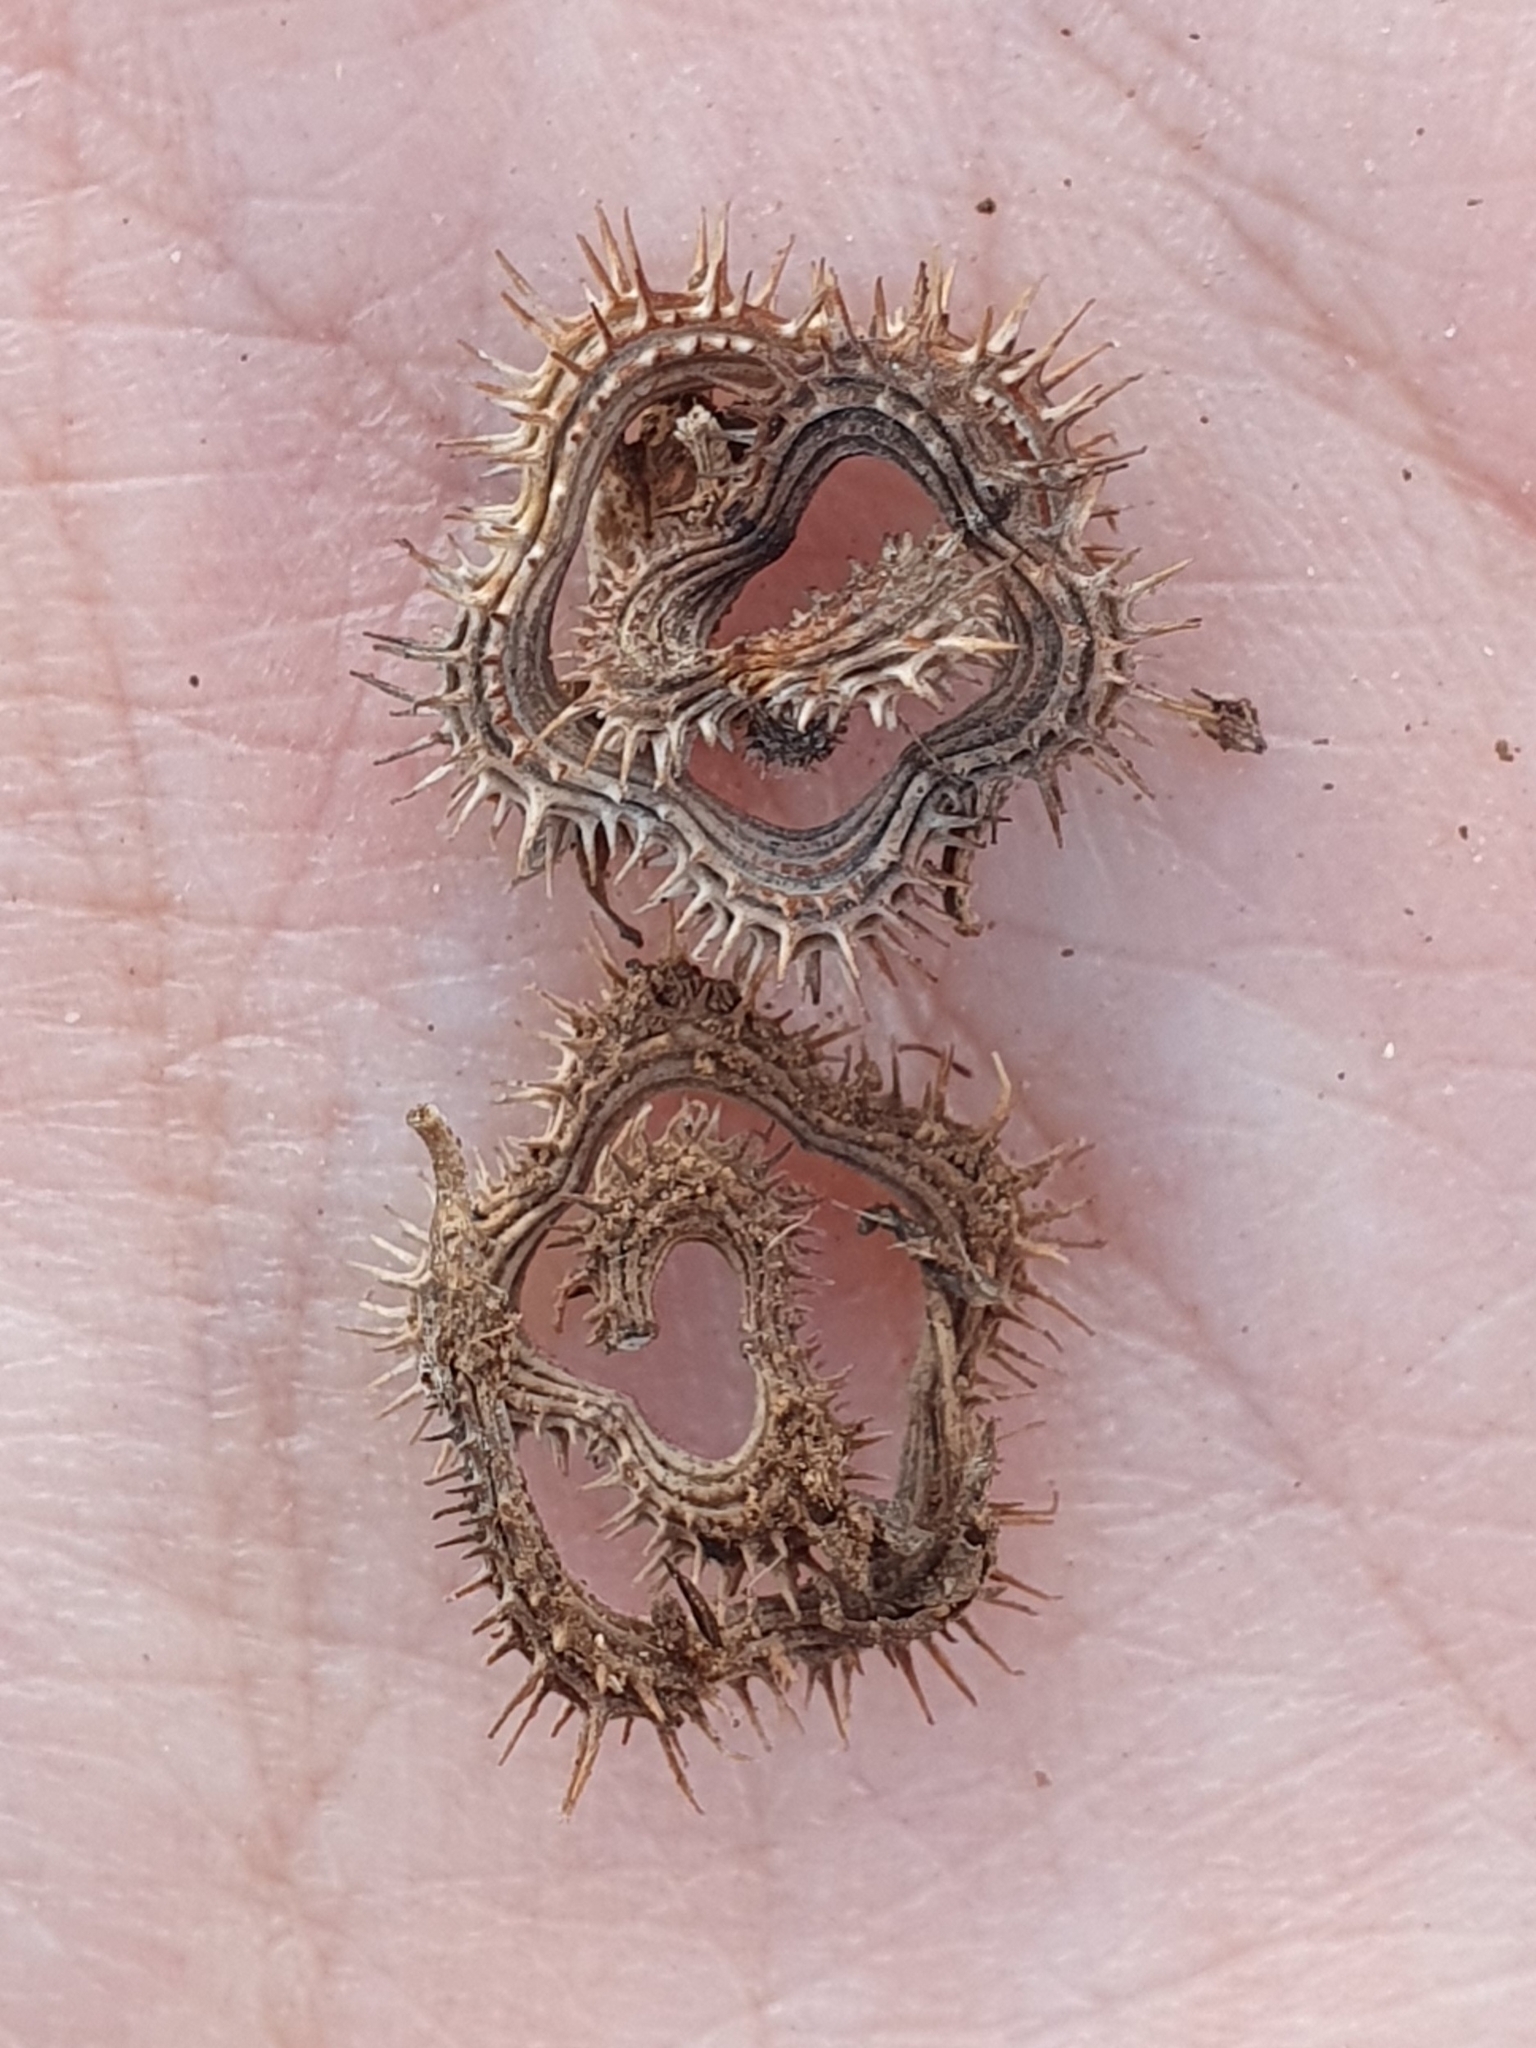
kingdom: Plantae
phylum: Tracheophyta
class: Magnoliopsida
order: Fabales
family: Fabaceae
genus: Scorpiurus
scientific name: Scorpiurus muricatus
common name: Caterpillar-plant
